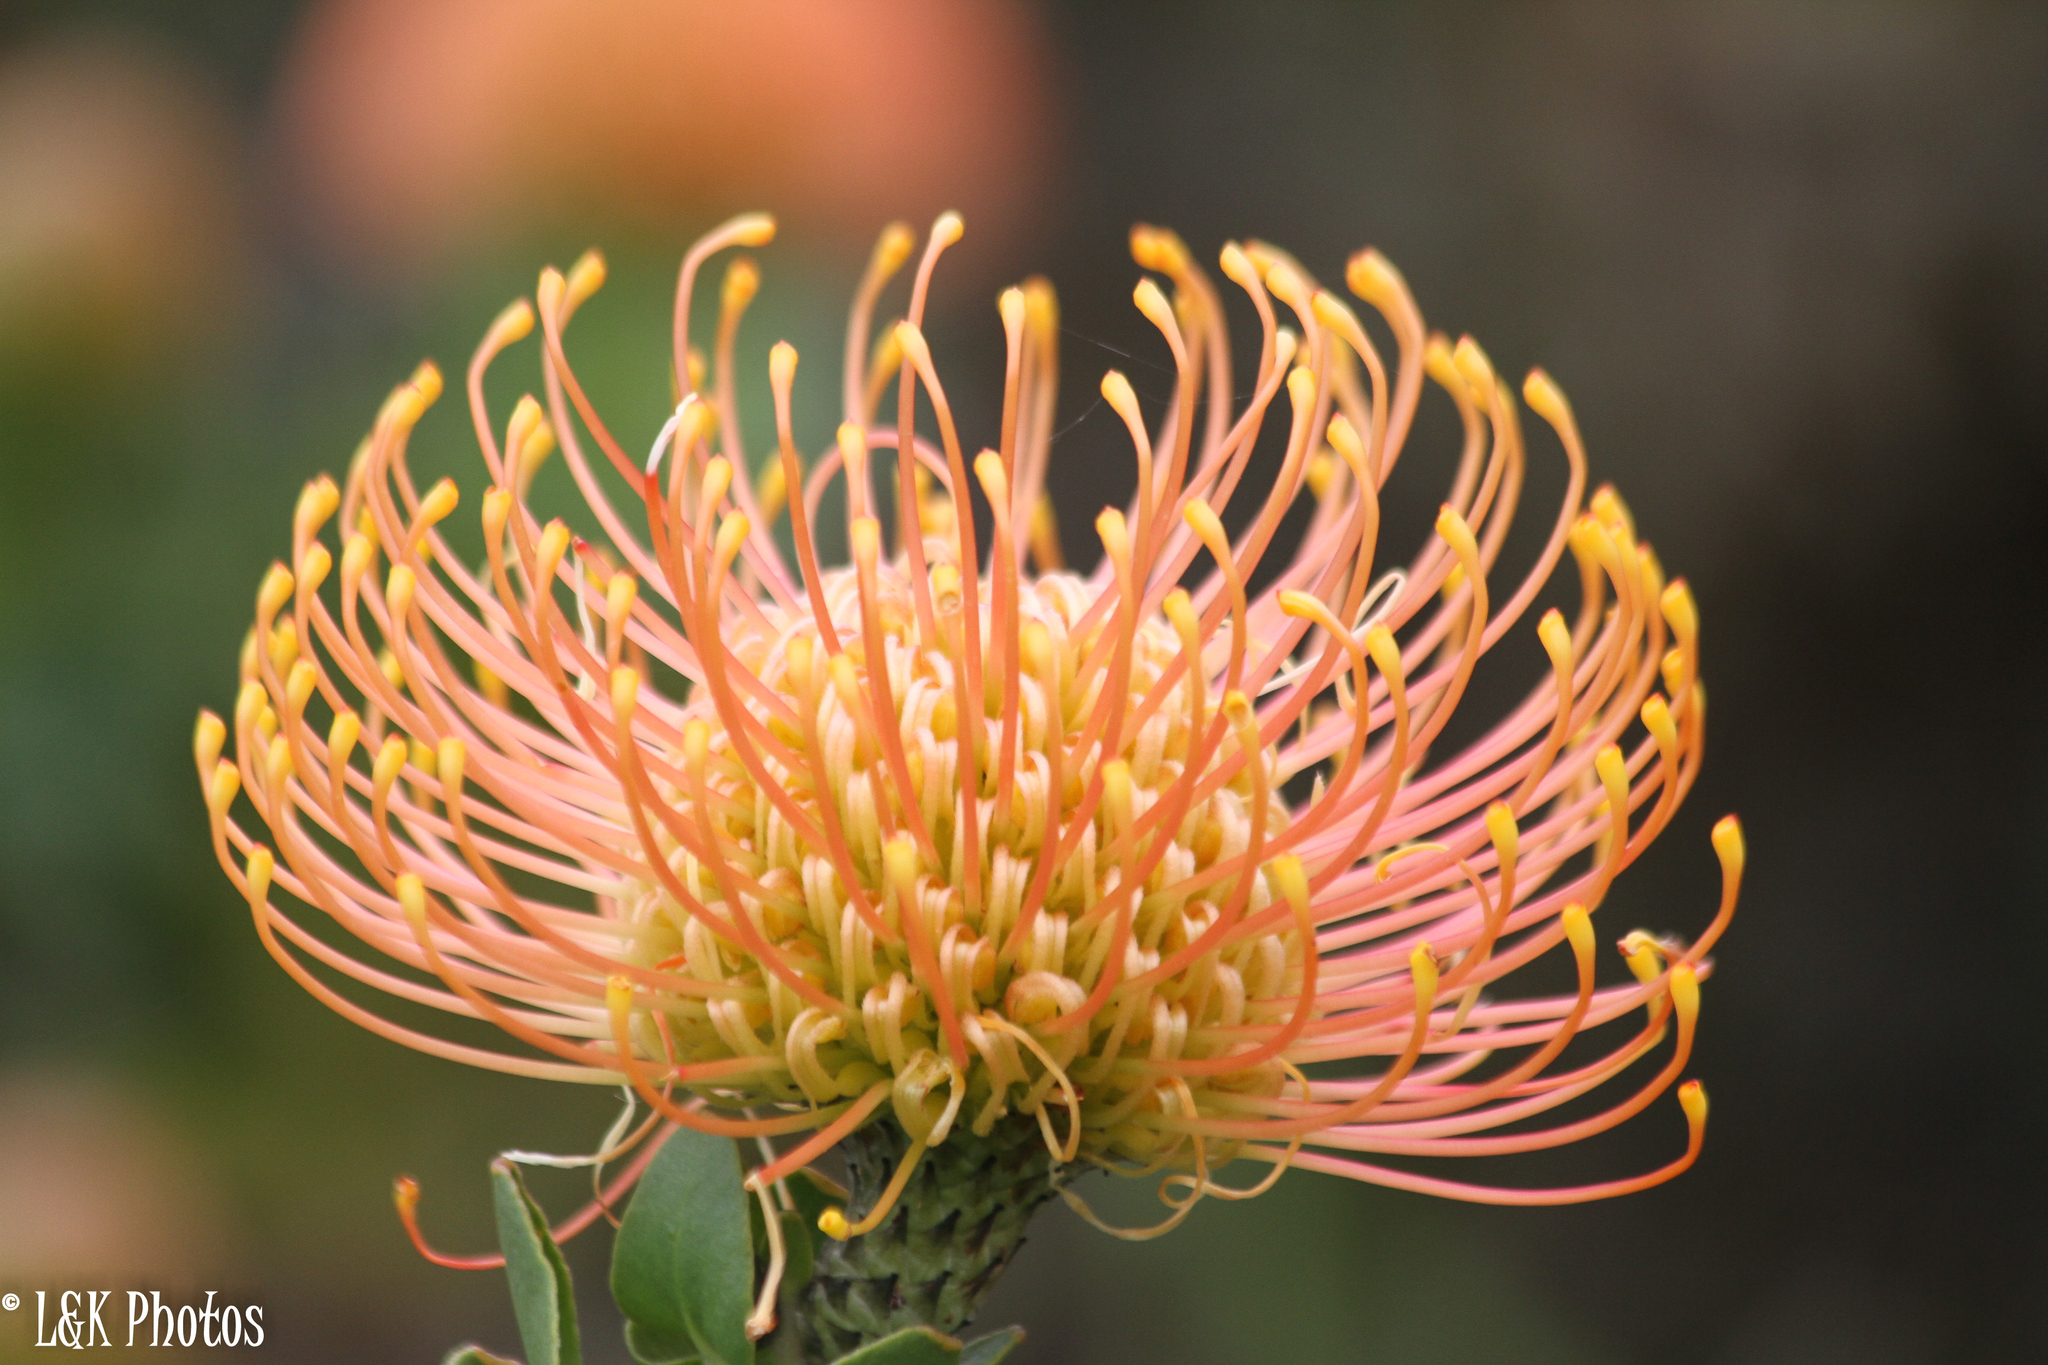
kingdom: Plantae
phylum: Tracheophyta
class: Magnoliopsida
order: Proteales
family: Proteaceae
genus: Leucospermum
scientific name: Leucospermum cordifolium
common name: Red pincushion-protea
